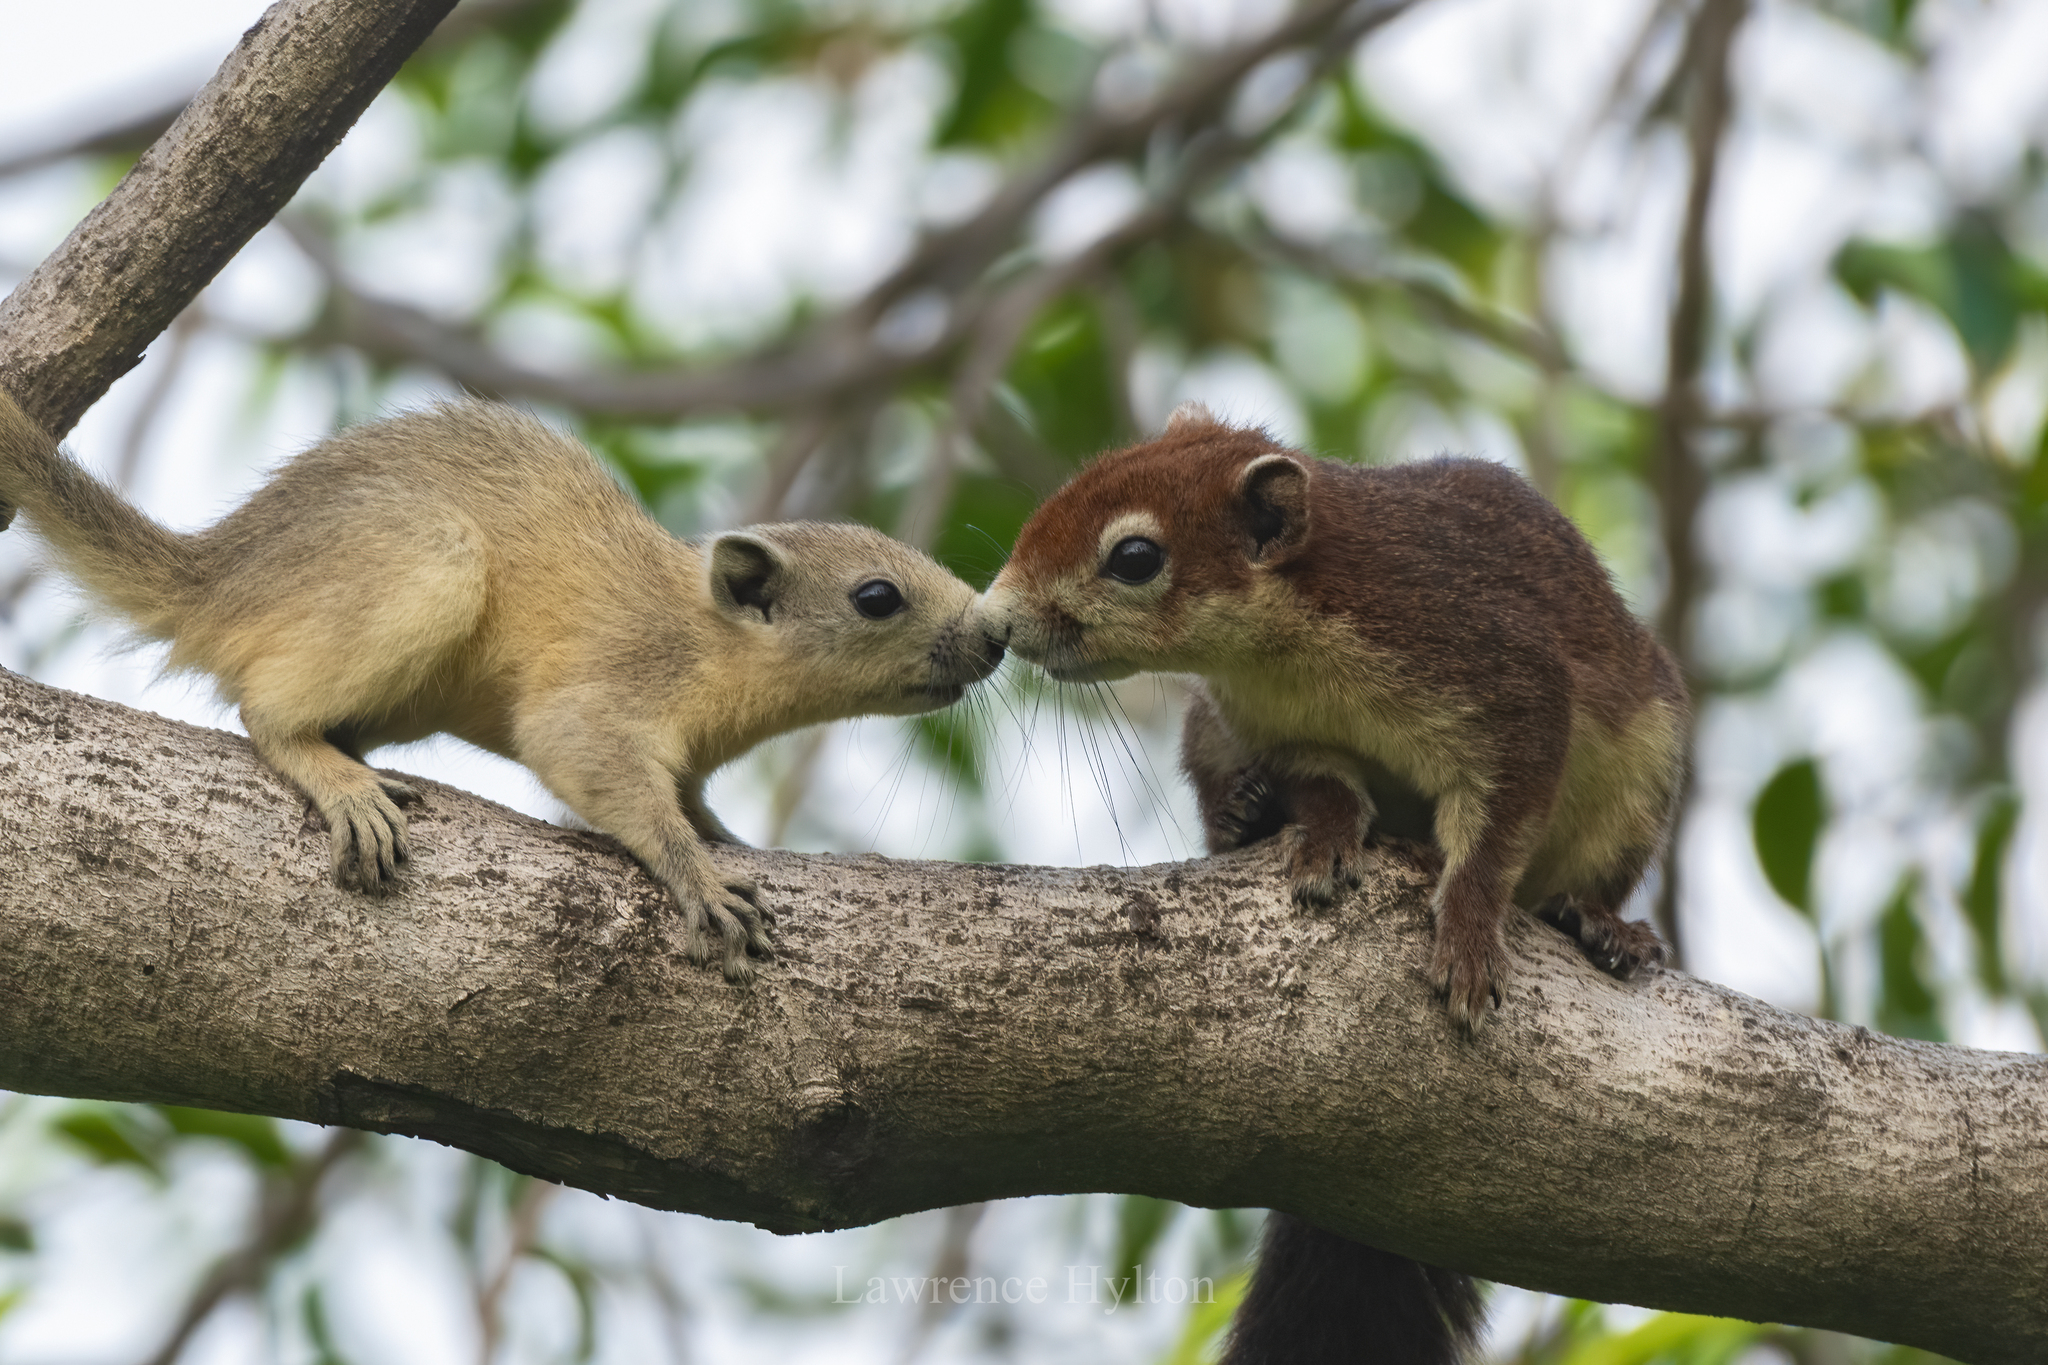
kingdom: Animalia
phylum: Chordata
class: Mammalia
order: Rodentia
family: Sciuridae
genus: Callosciurus
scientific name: Callosciurus finlaysonii
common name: Finlayson's squirrel
